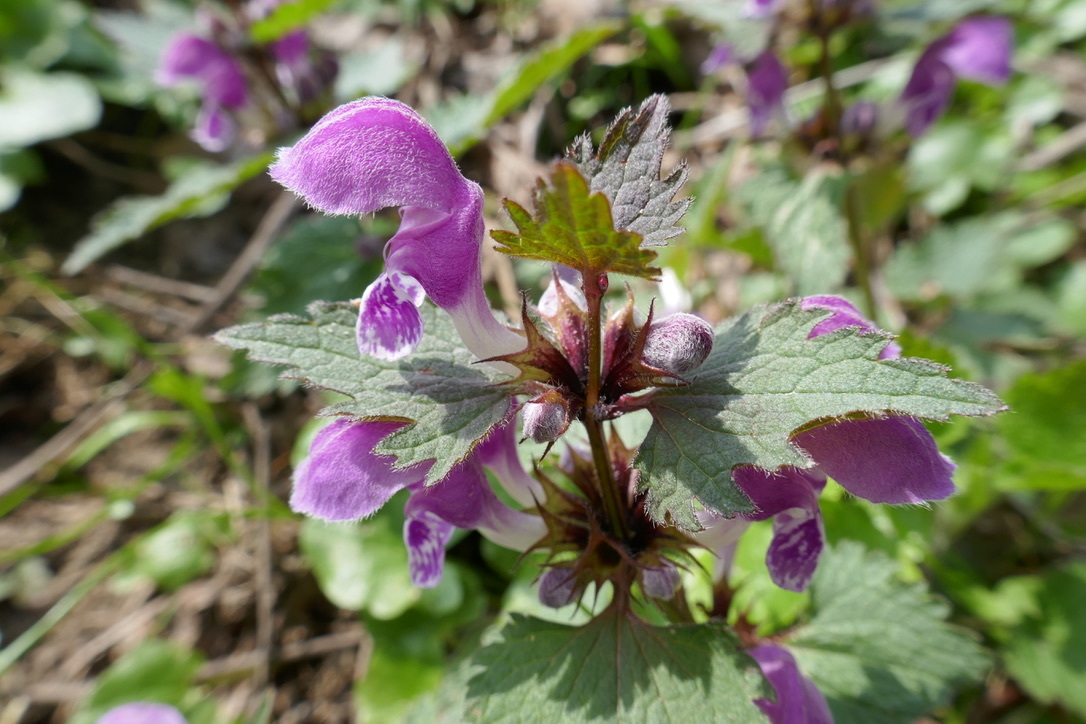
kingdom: Plantae
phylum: Tracheophyta
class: Magnoliopsida
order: Lamiales
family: Lamiaceae
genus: Lamium
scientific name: Lamium maculatum
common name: Spotted dead-nettle
